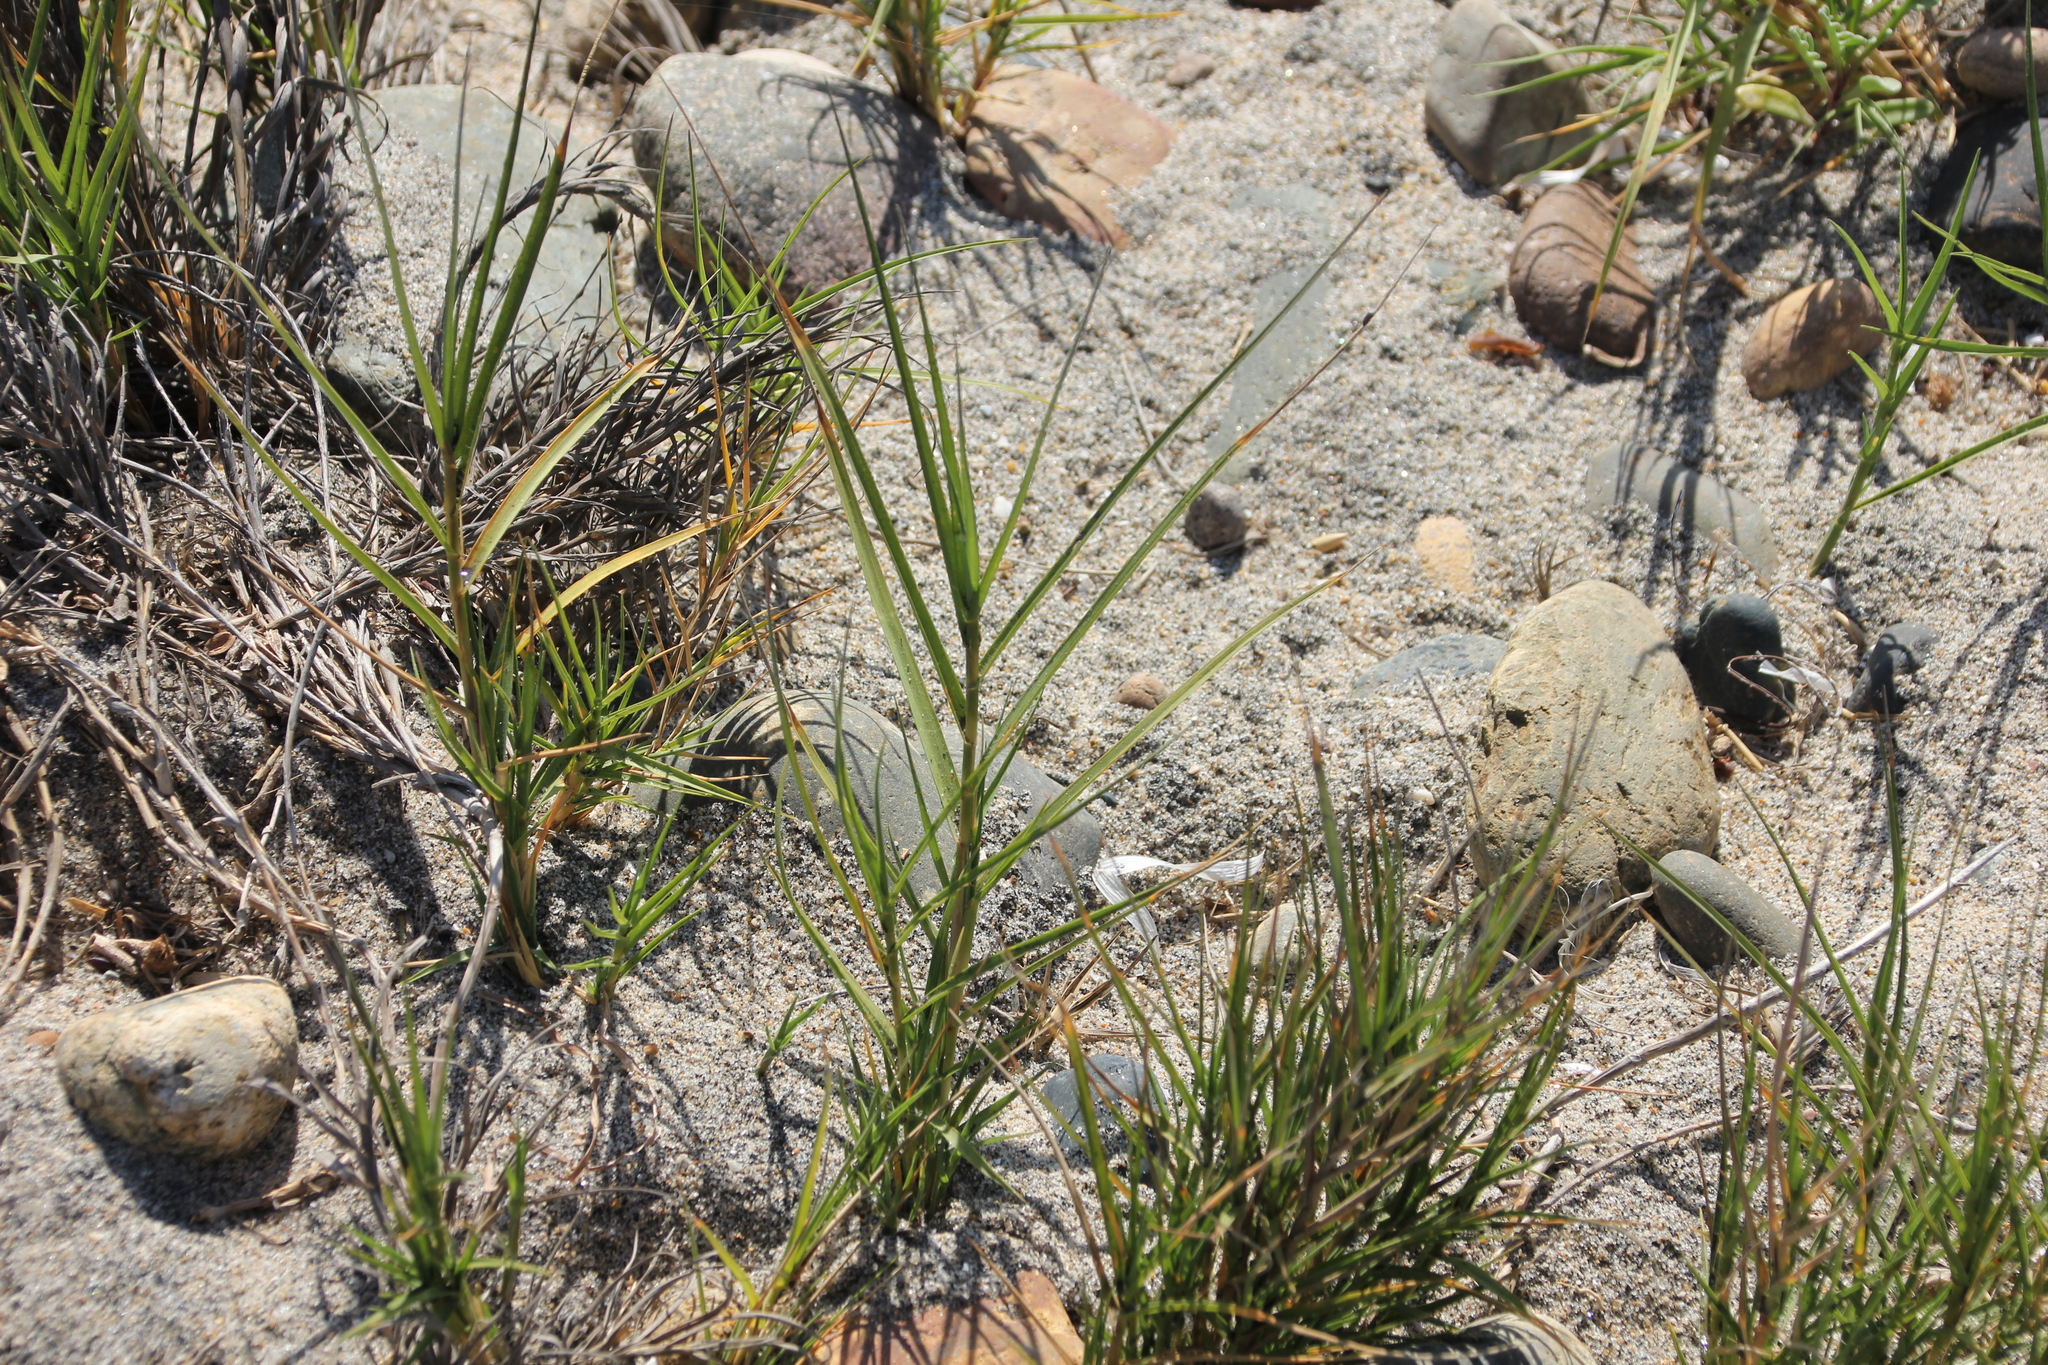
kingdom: Plantae
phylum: Tracheophyta
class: Liliopsida
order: Poales
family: Poaceae
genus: Distichlis
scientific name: Distichlis spicata
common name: Saltgrass
